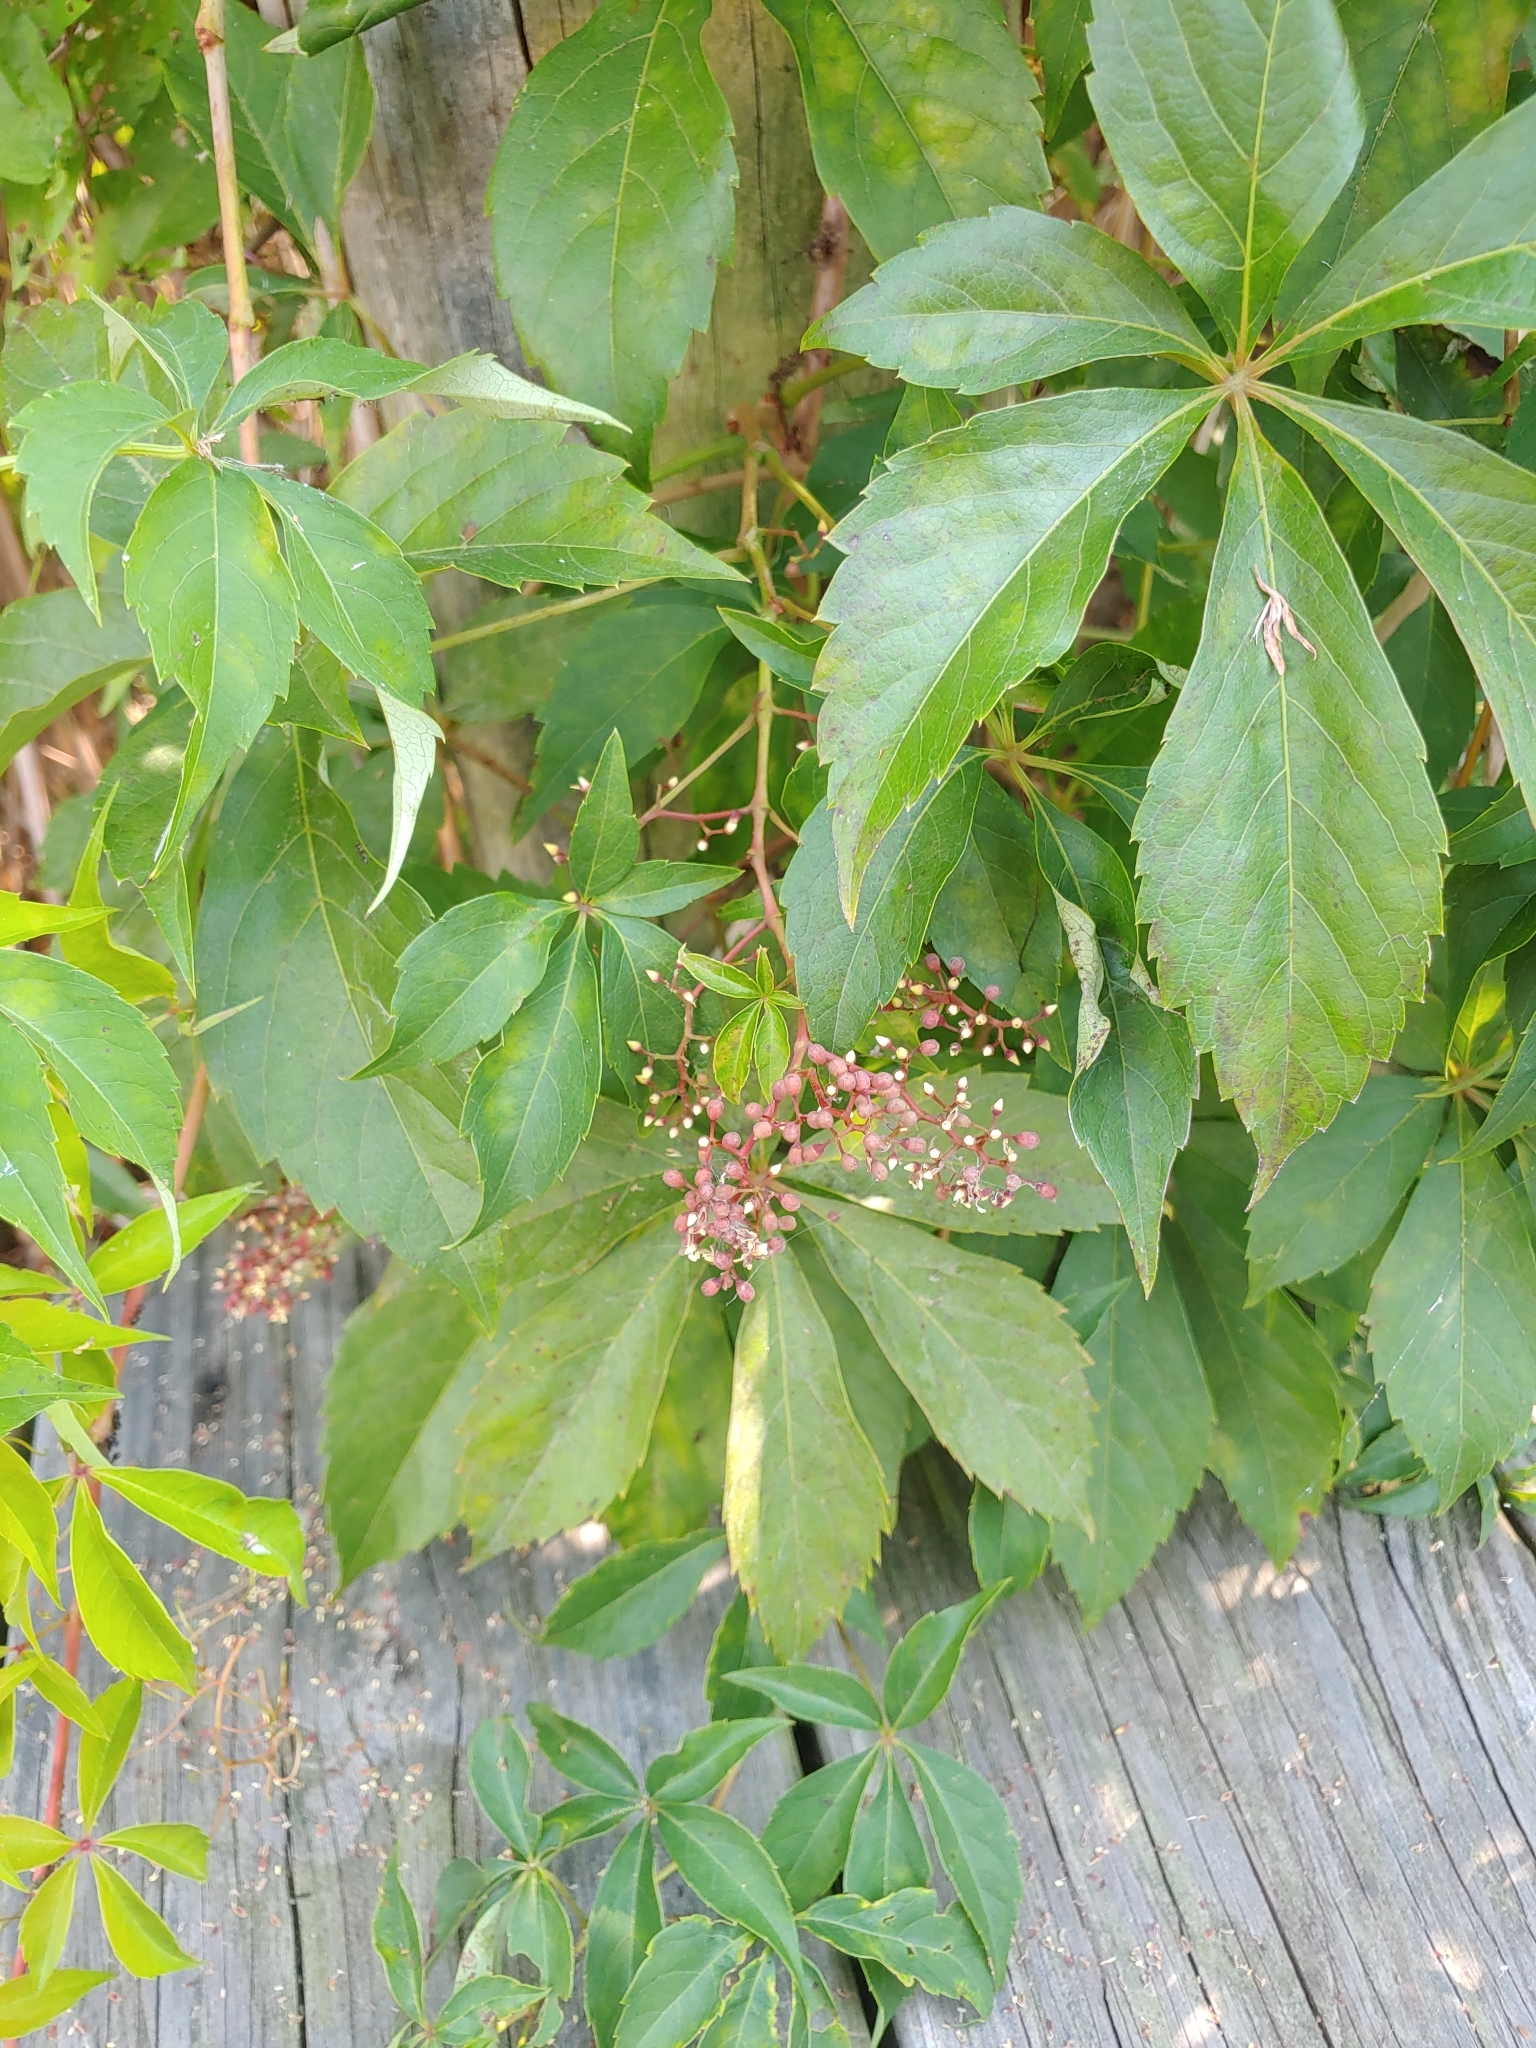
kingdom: Plantae
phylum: Tracheophyta
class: Magnoliopsida
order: Vitales
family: Vitaceae
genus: Parthenocissus
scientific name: Parthenocissus quinquefolia
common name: Virginia-creeper
